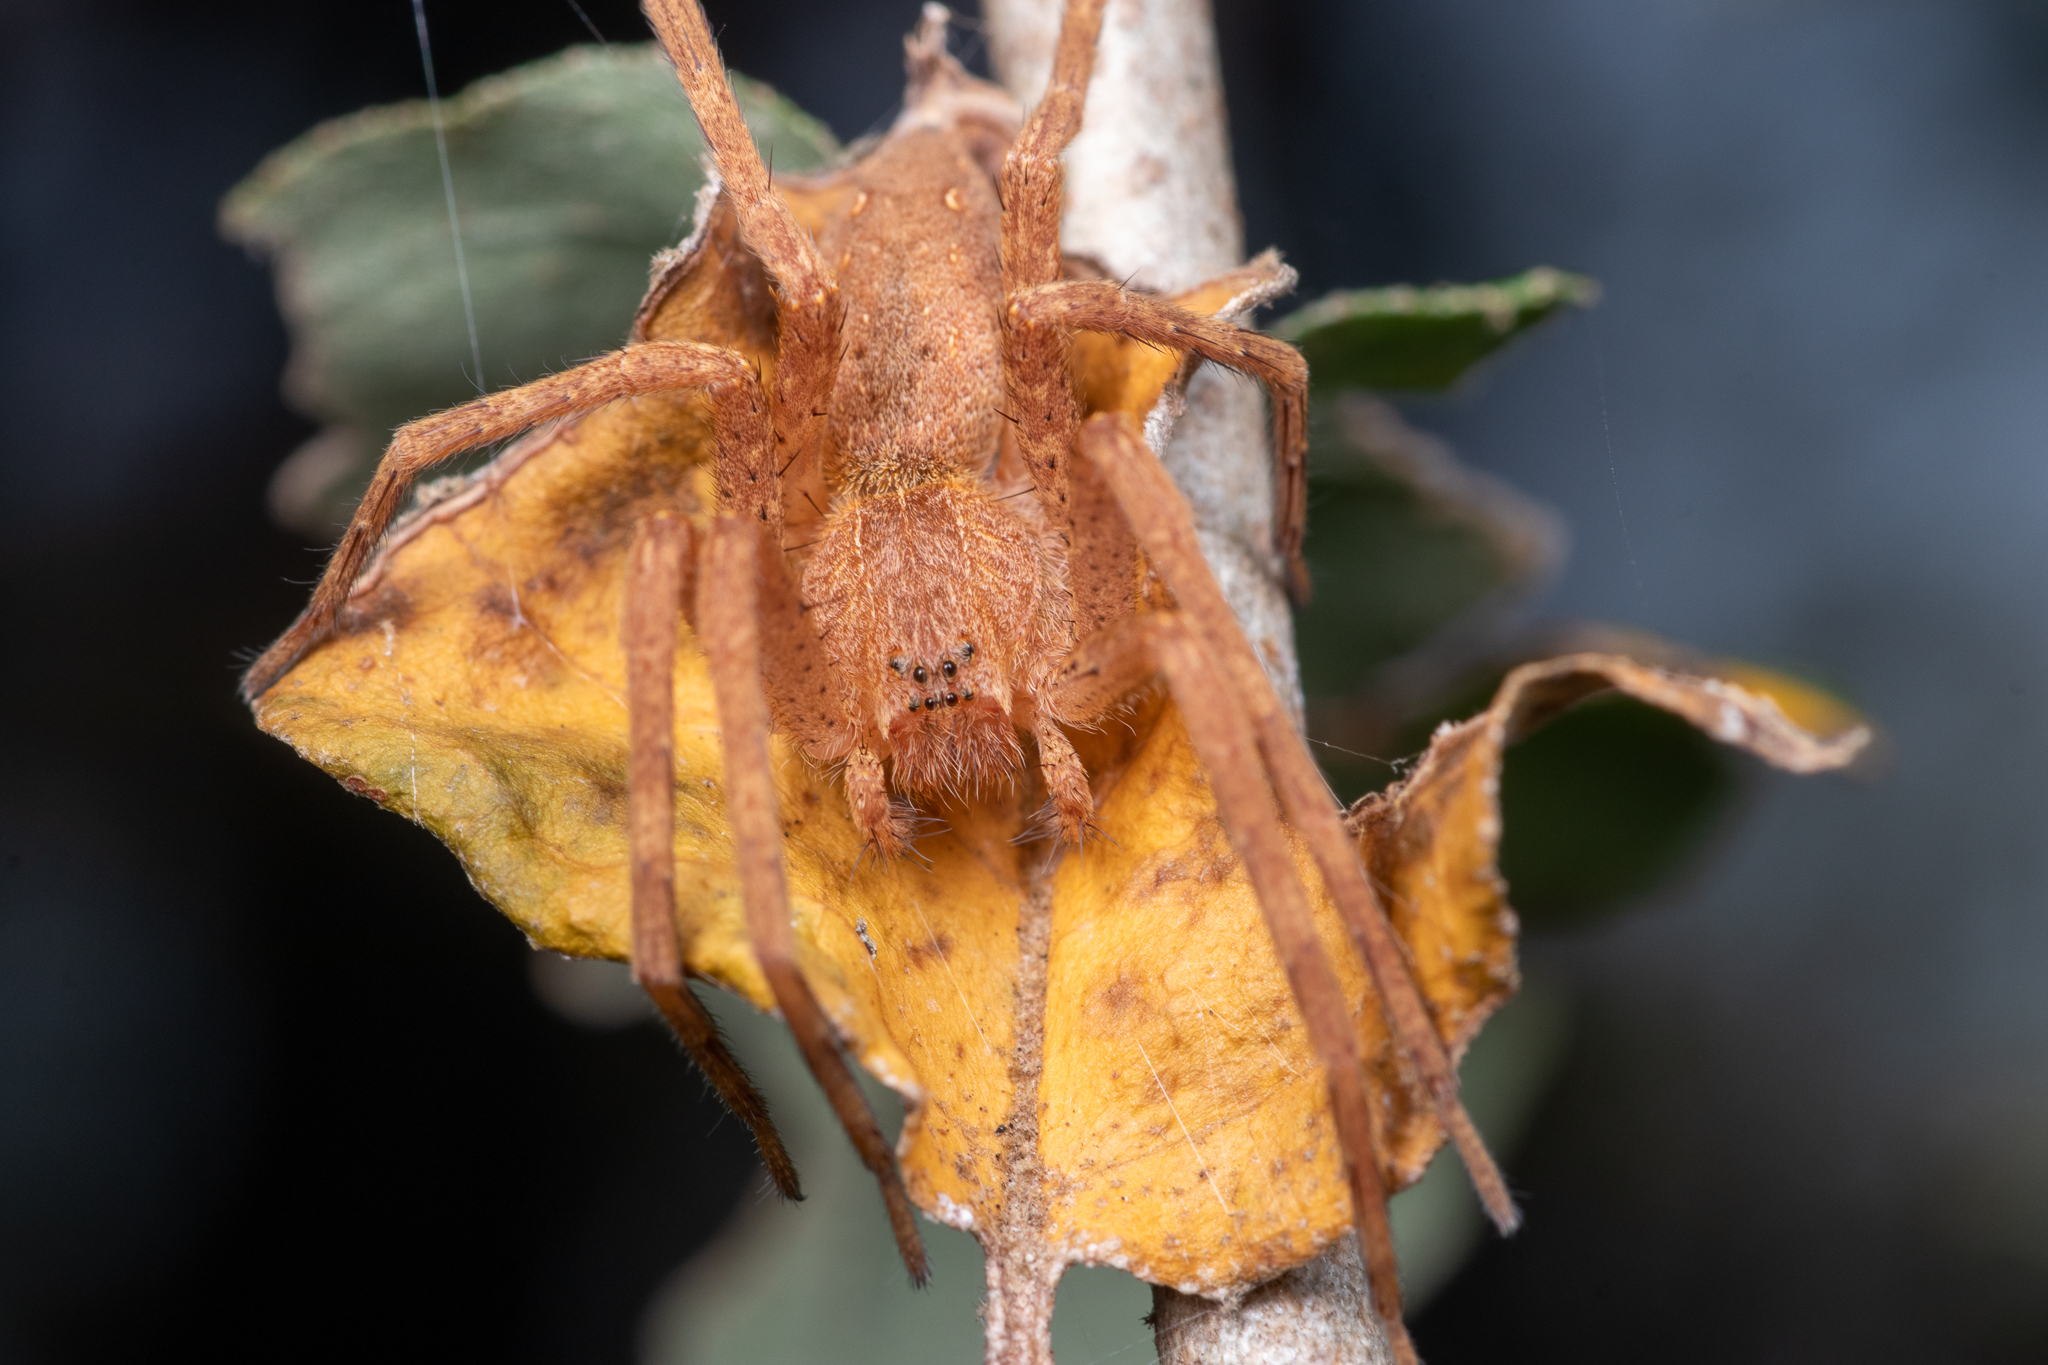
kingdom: Animalia
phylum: Arthropoda
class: Arachnida
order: Araneae
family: Pisauridae
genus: Pisaurina
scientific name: Pisaurina mira
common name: American nursery web spider
